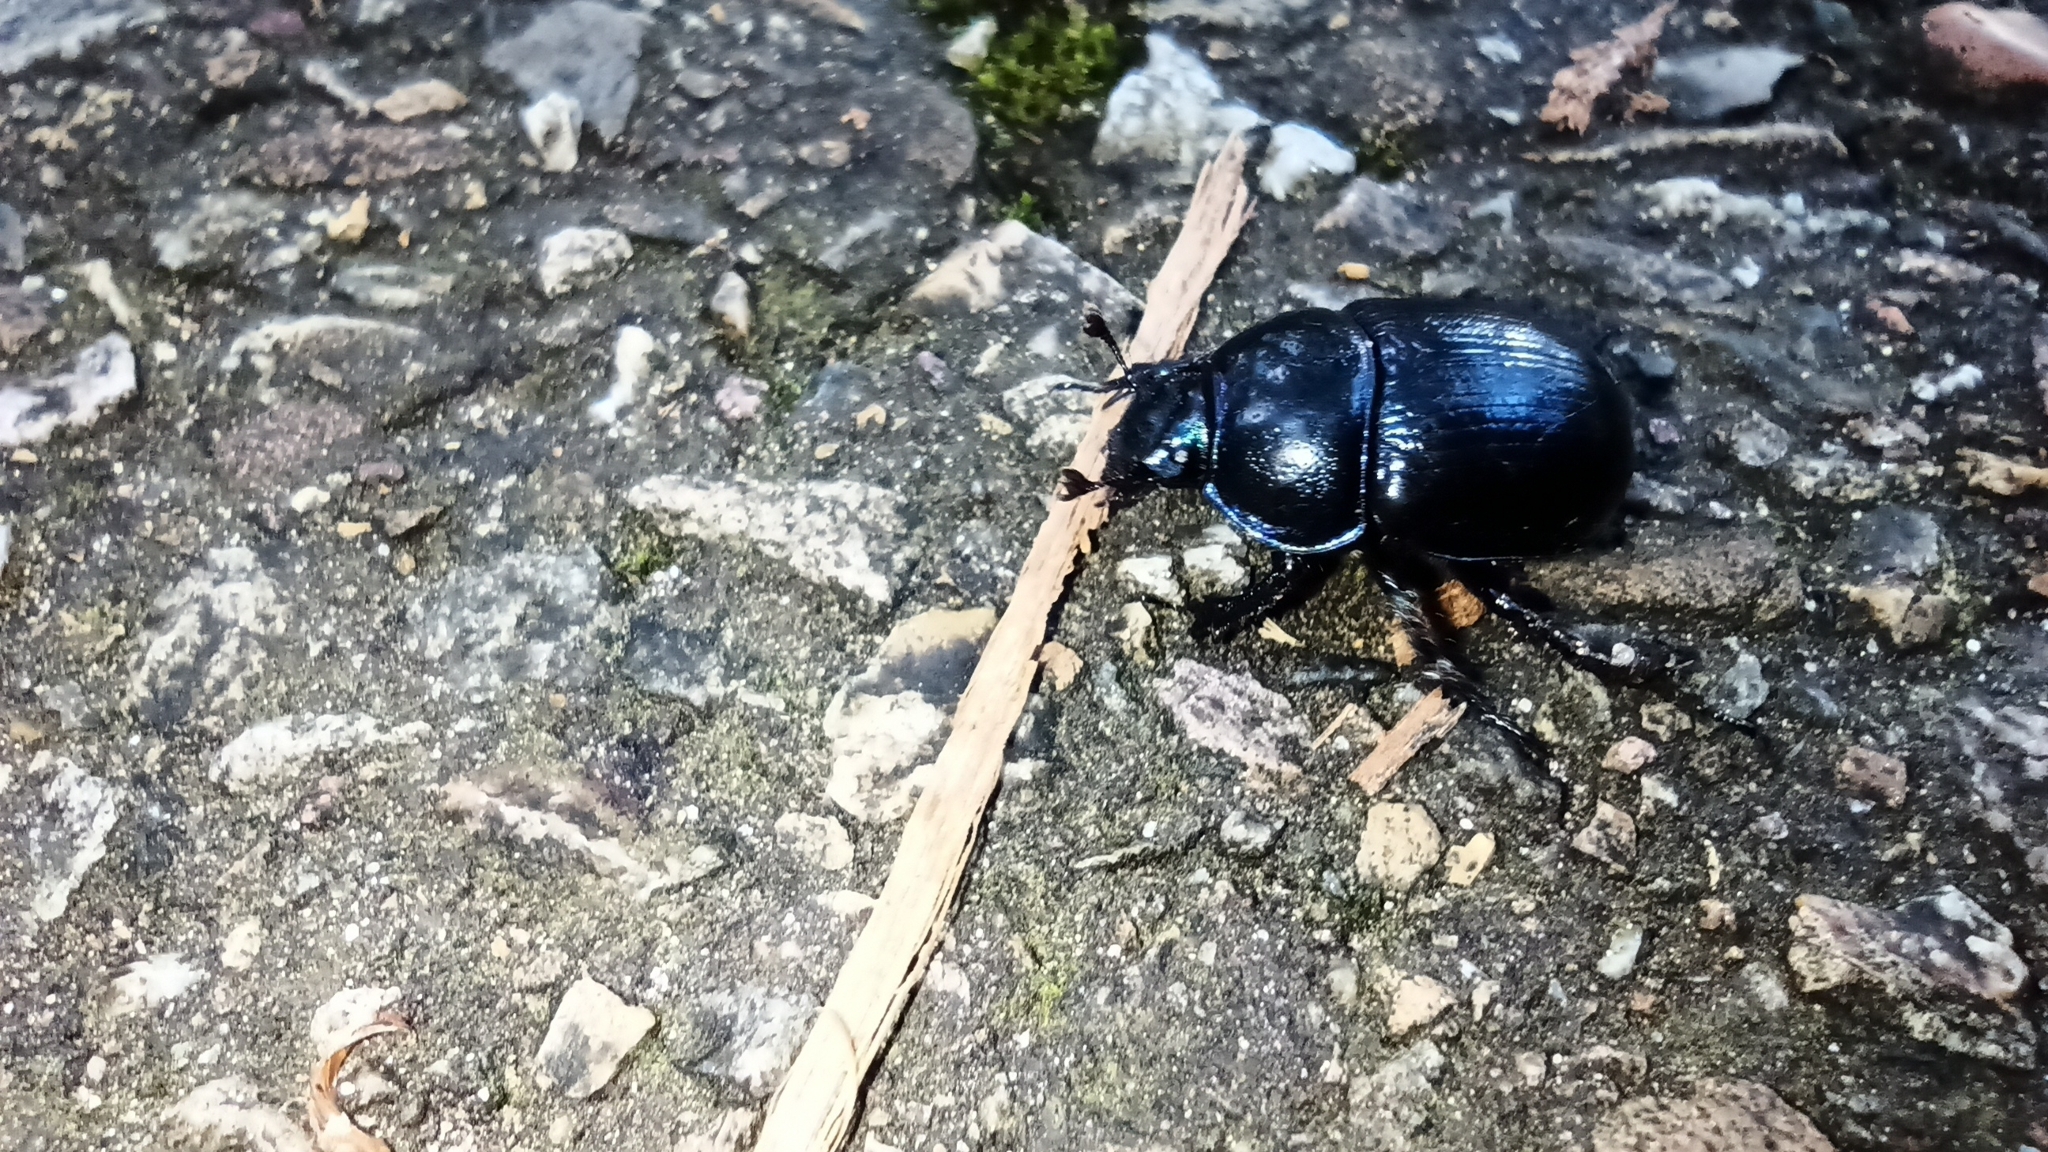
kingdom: Animalia
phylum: Arthropoda
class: Insecta
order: Coleoptera
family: Geotrupidae
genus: Anoplotrupes
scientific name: Anoplotrupes stercorosus
